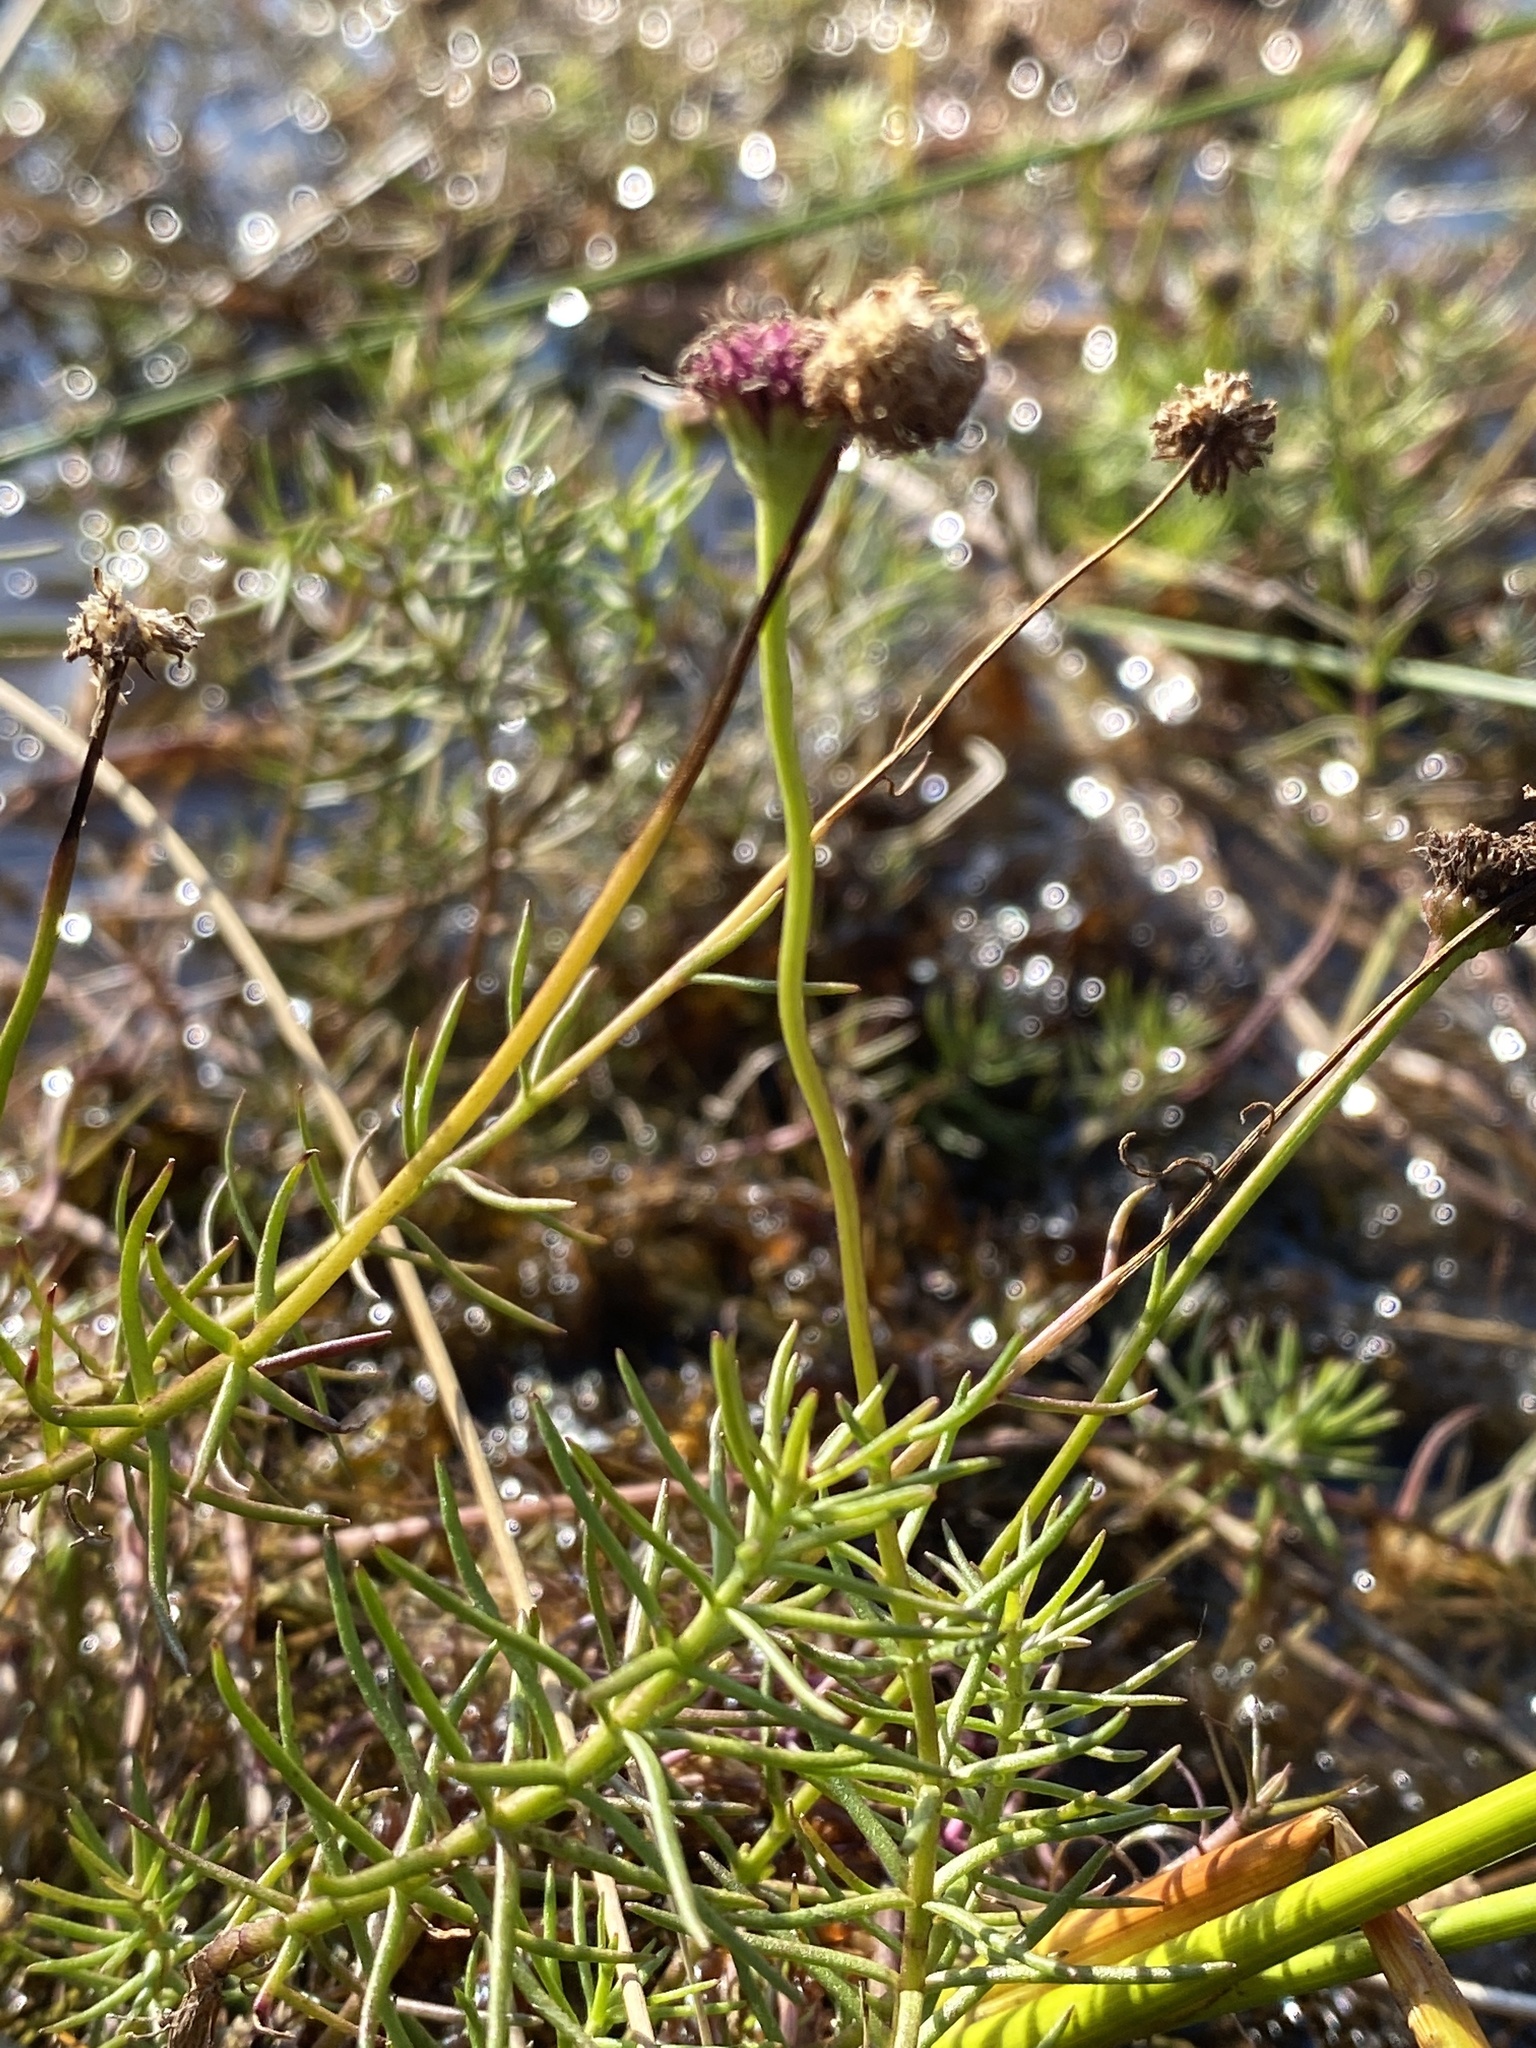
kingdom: Plantae
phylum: Tracheophyta
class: Magnoliopsida
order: Asterales
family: Asteraceae
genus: Sclerolepis
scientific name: Sclerolepis uniflora
